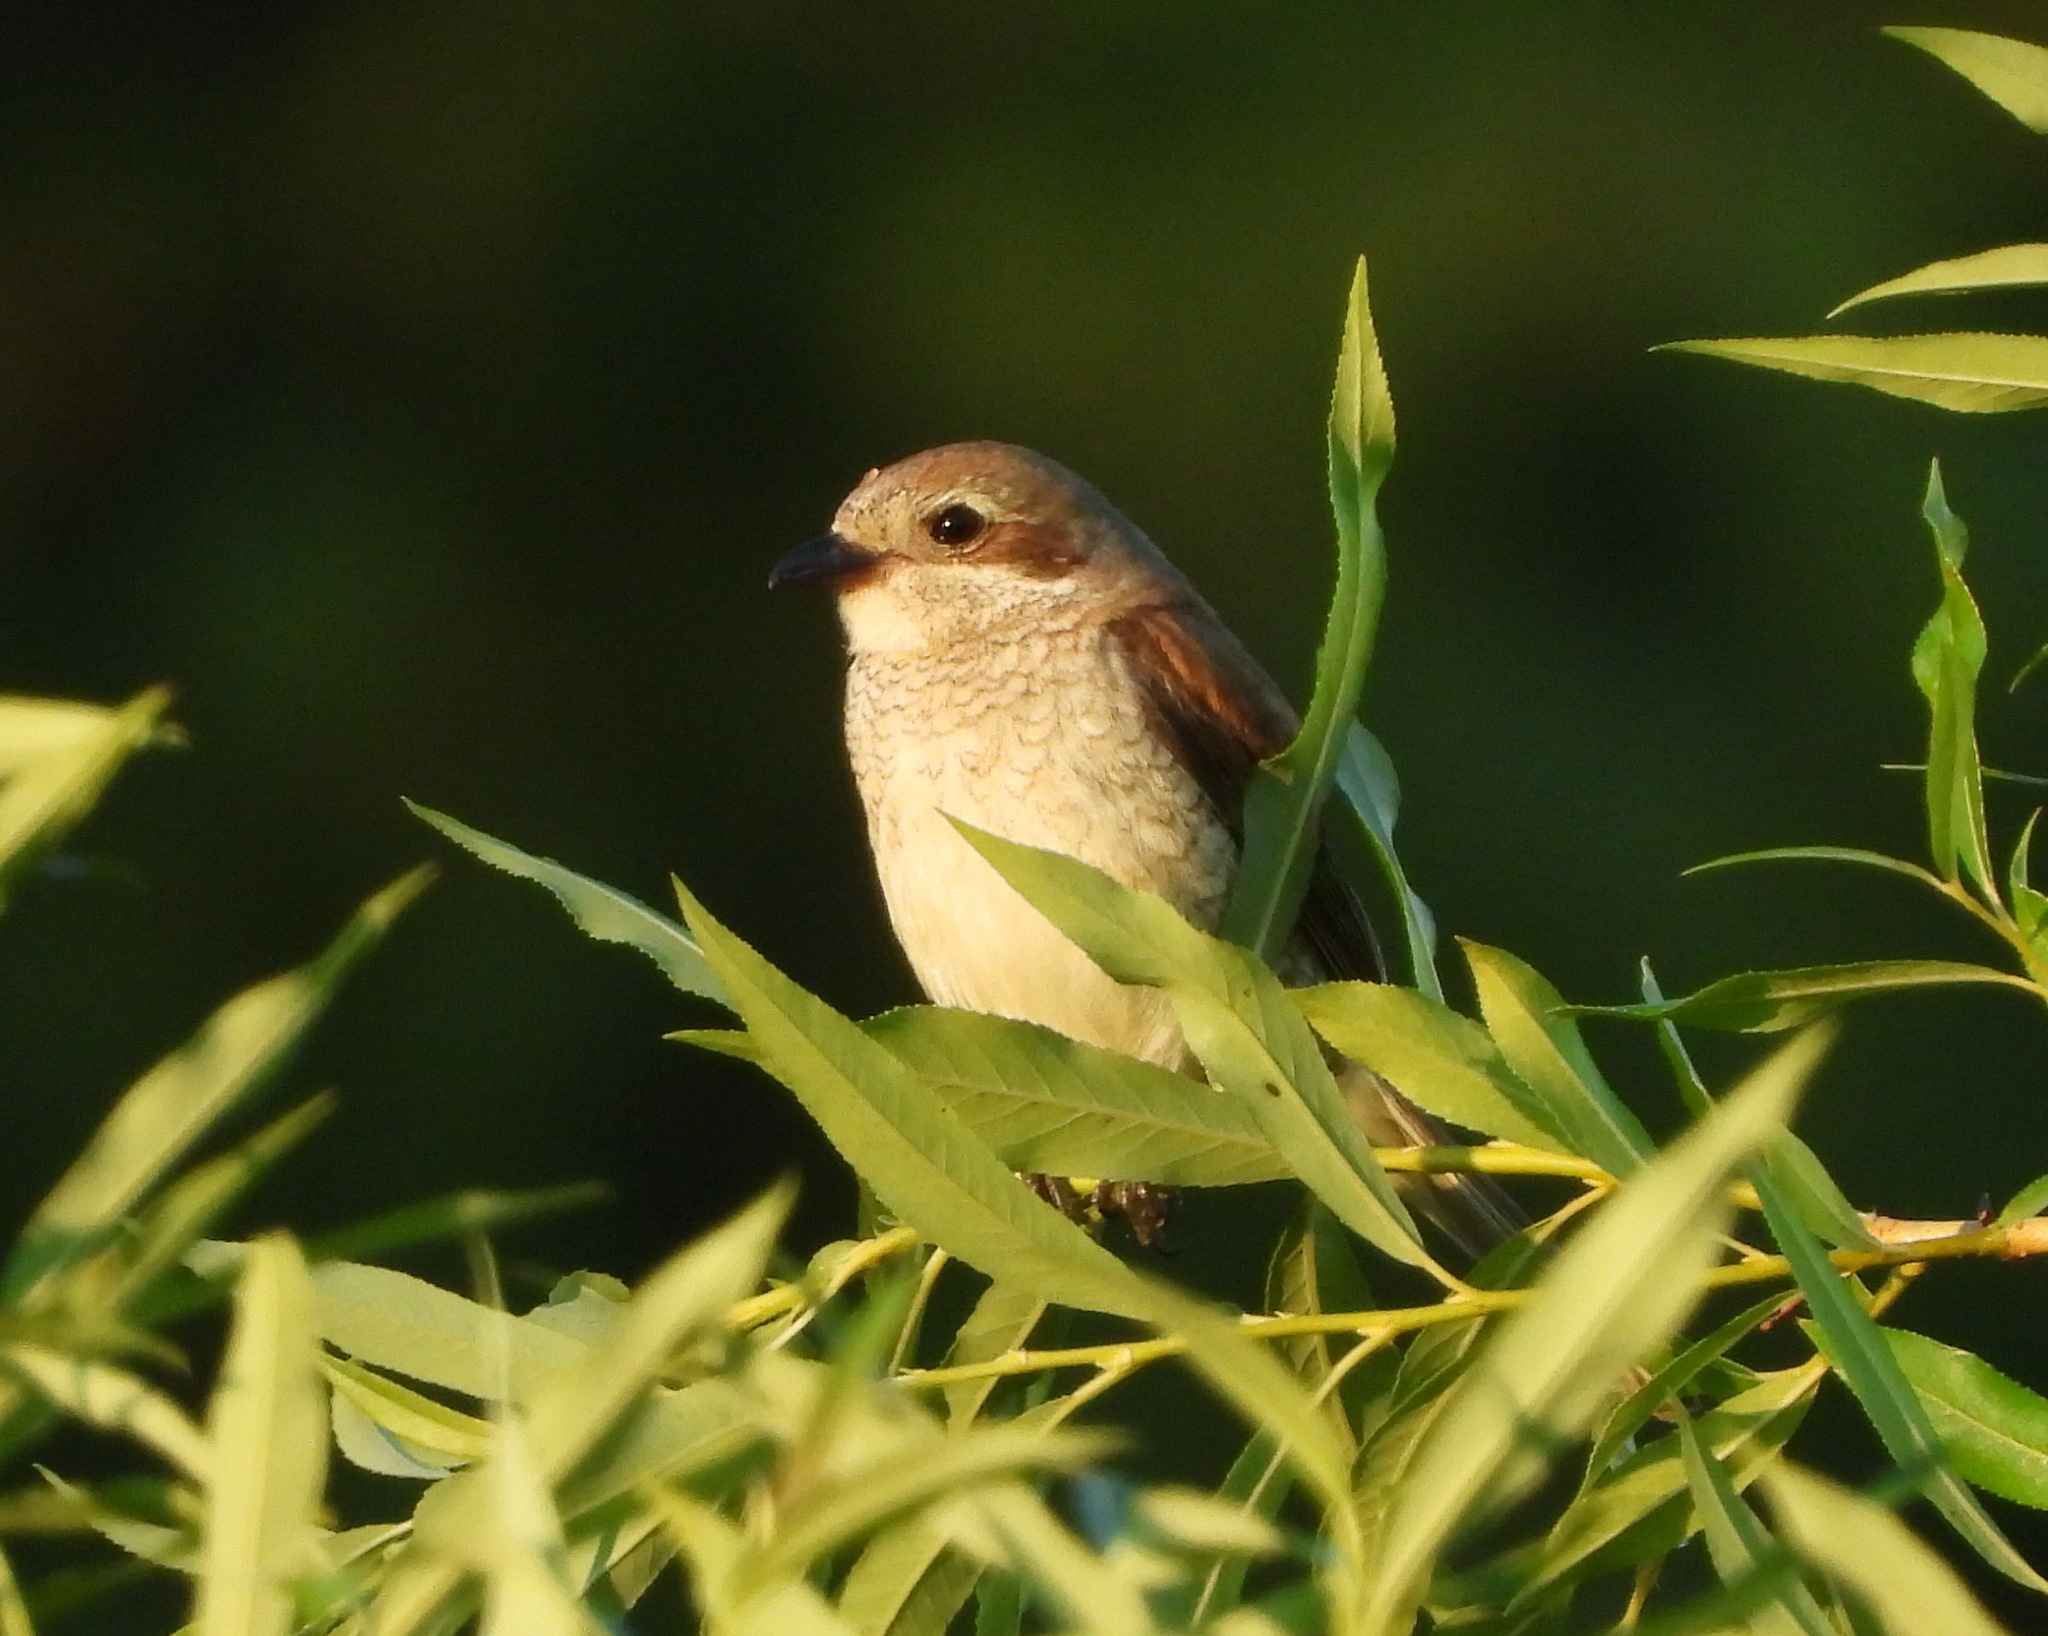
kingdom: Animalia
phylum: Chordata
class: Aves
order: Passeriformes
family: Laniidae
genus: Lanius
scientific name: Lanius collurio
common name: Red-backed shrike
